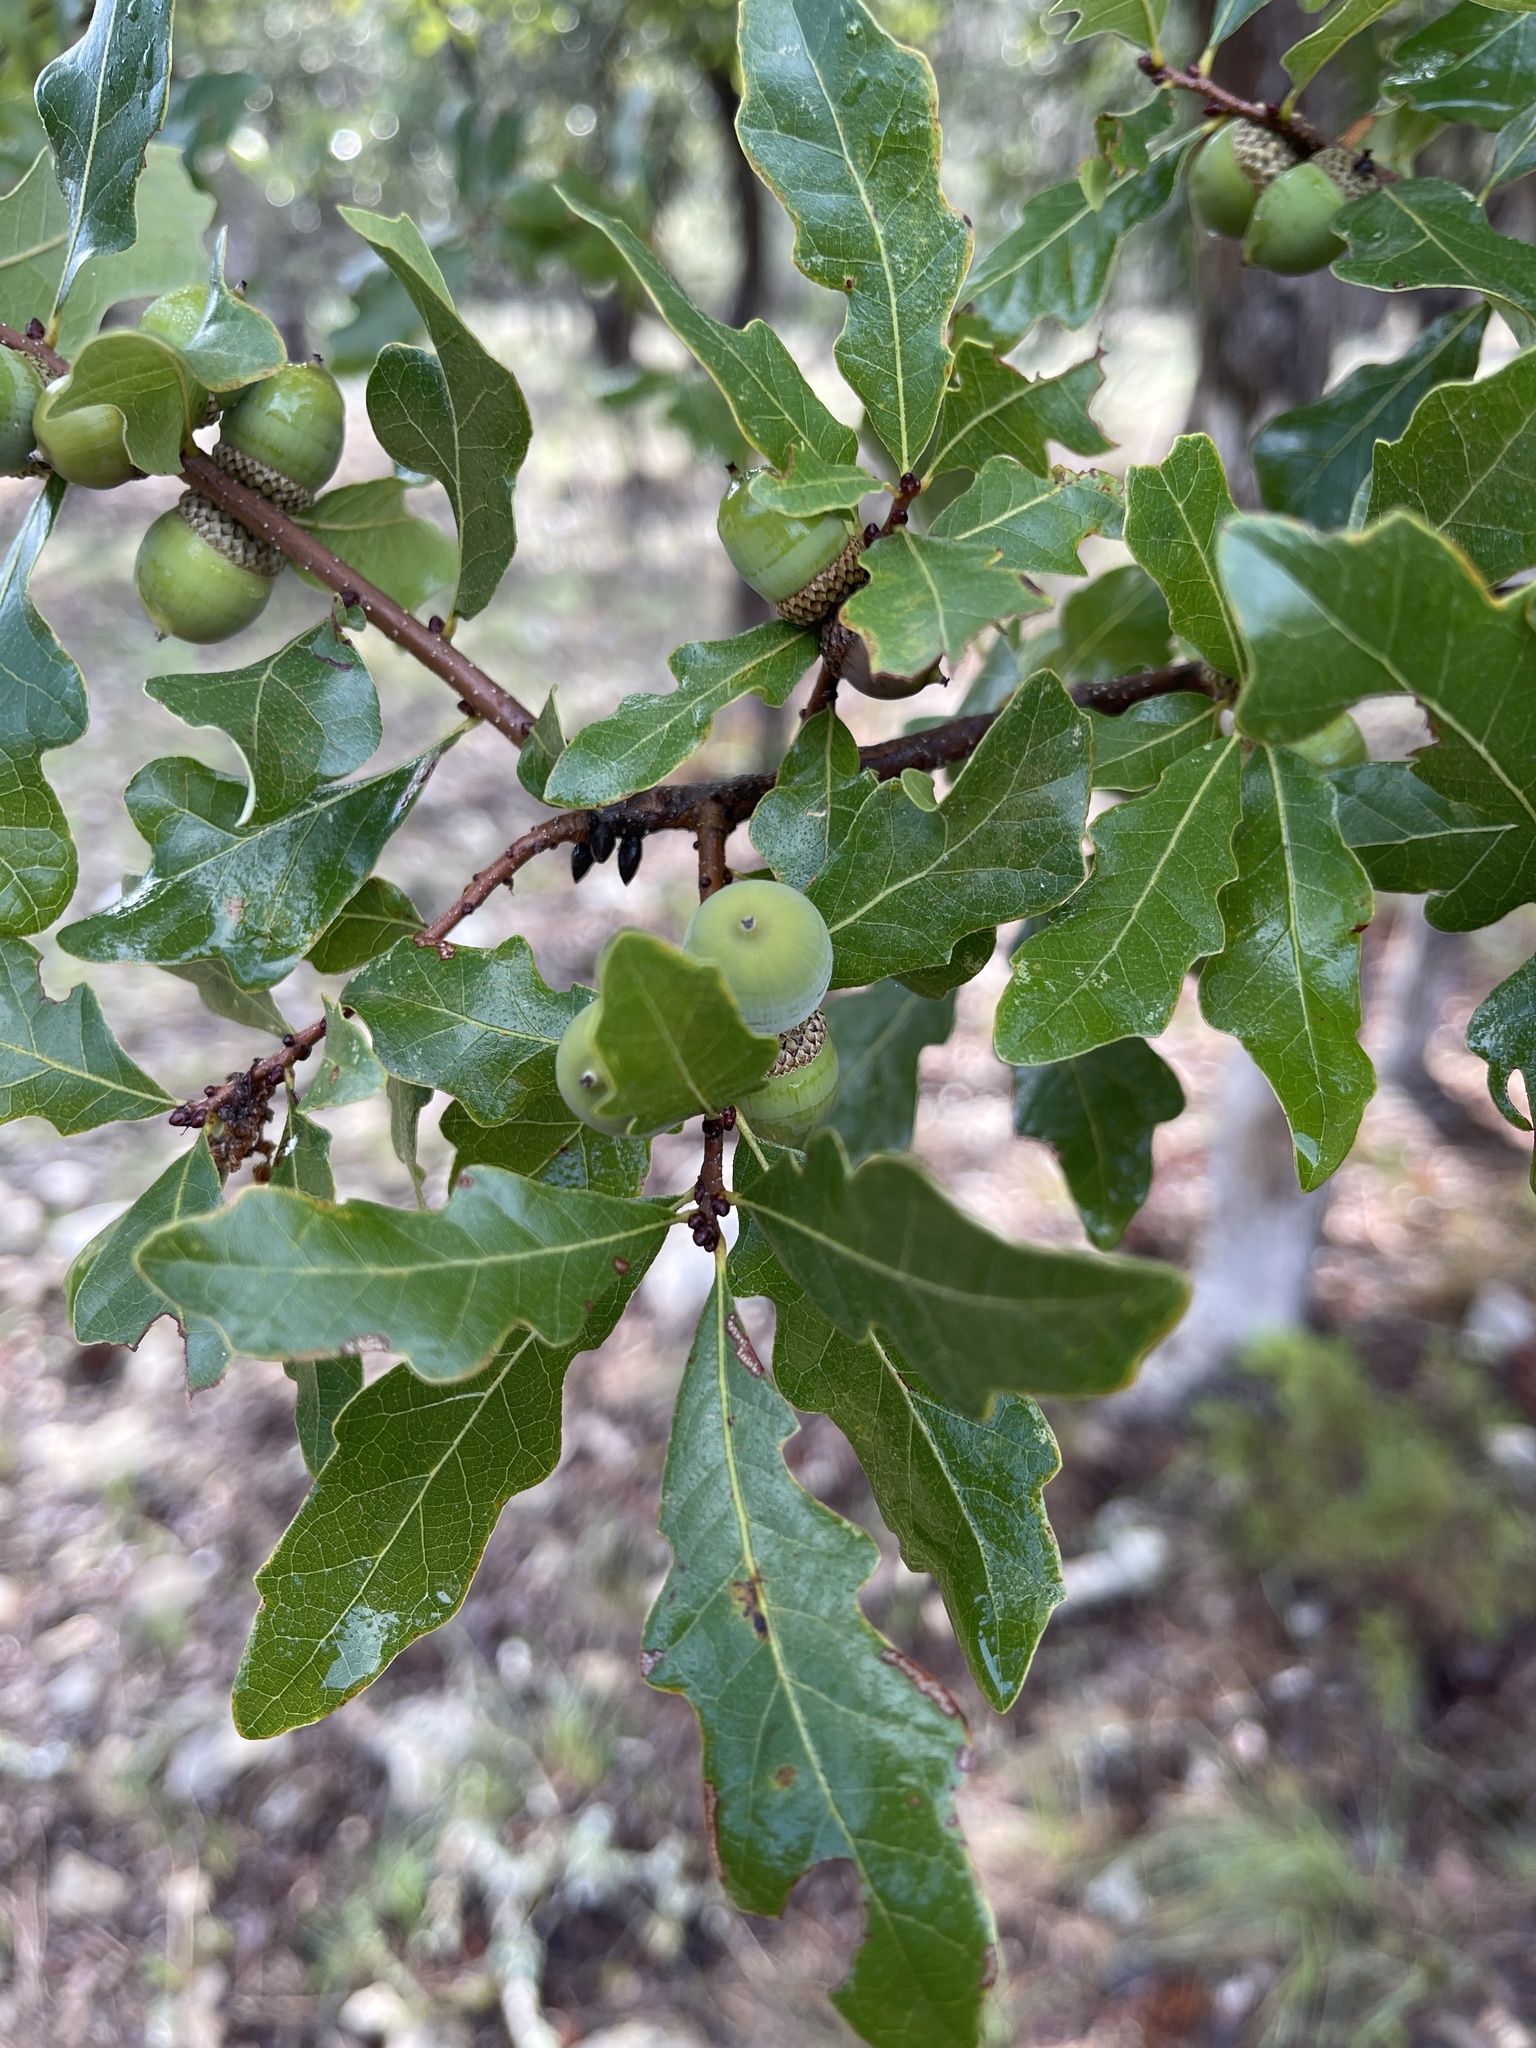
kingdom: Plantae
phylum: Tracheophyta
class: Magnoliopsida
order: Fagales
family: Fagaceae
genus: Quercus
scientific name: Quercus sinuata
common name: Durand oak
